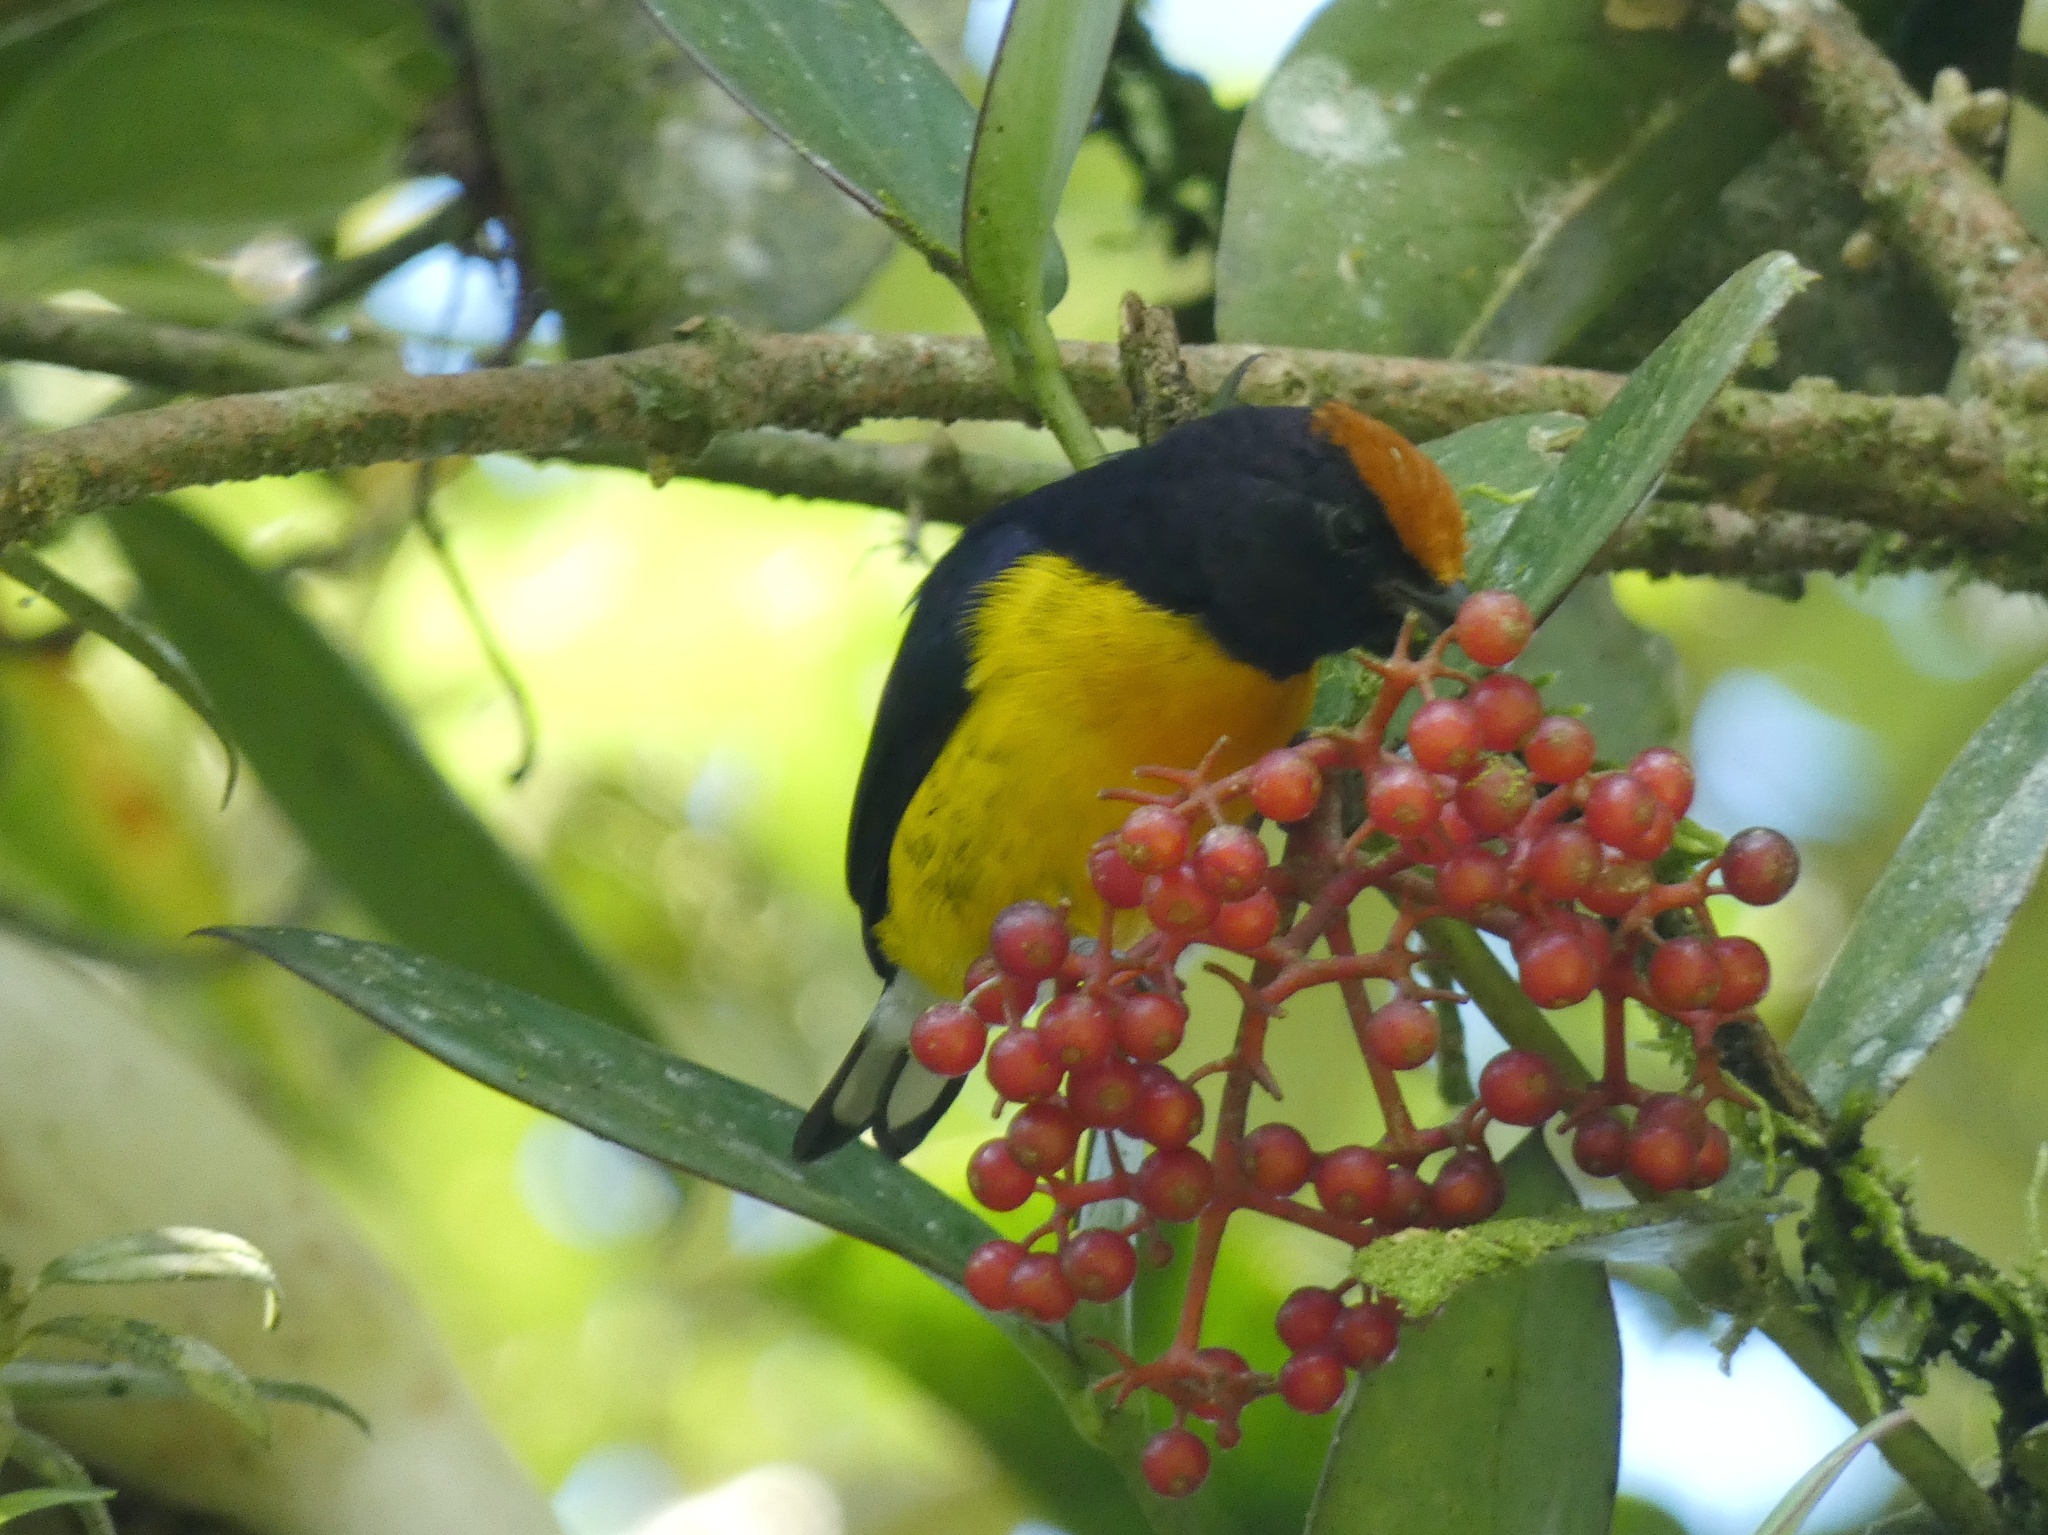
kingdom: Animalia
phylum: Chordata
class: Aves
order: Passeriformes
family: Fringillidae
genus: Euphonia
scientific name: Euphonia anneae
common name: Tawny-capped euphonia
